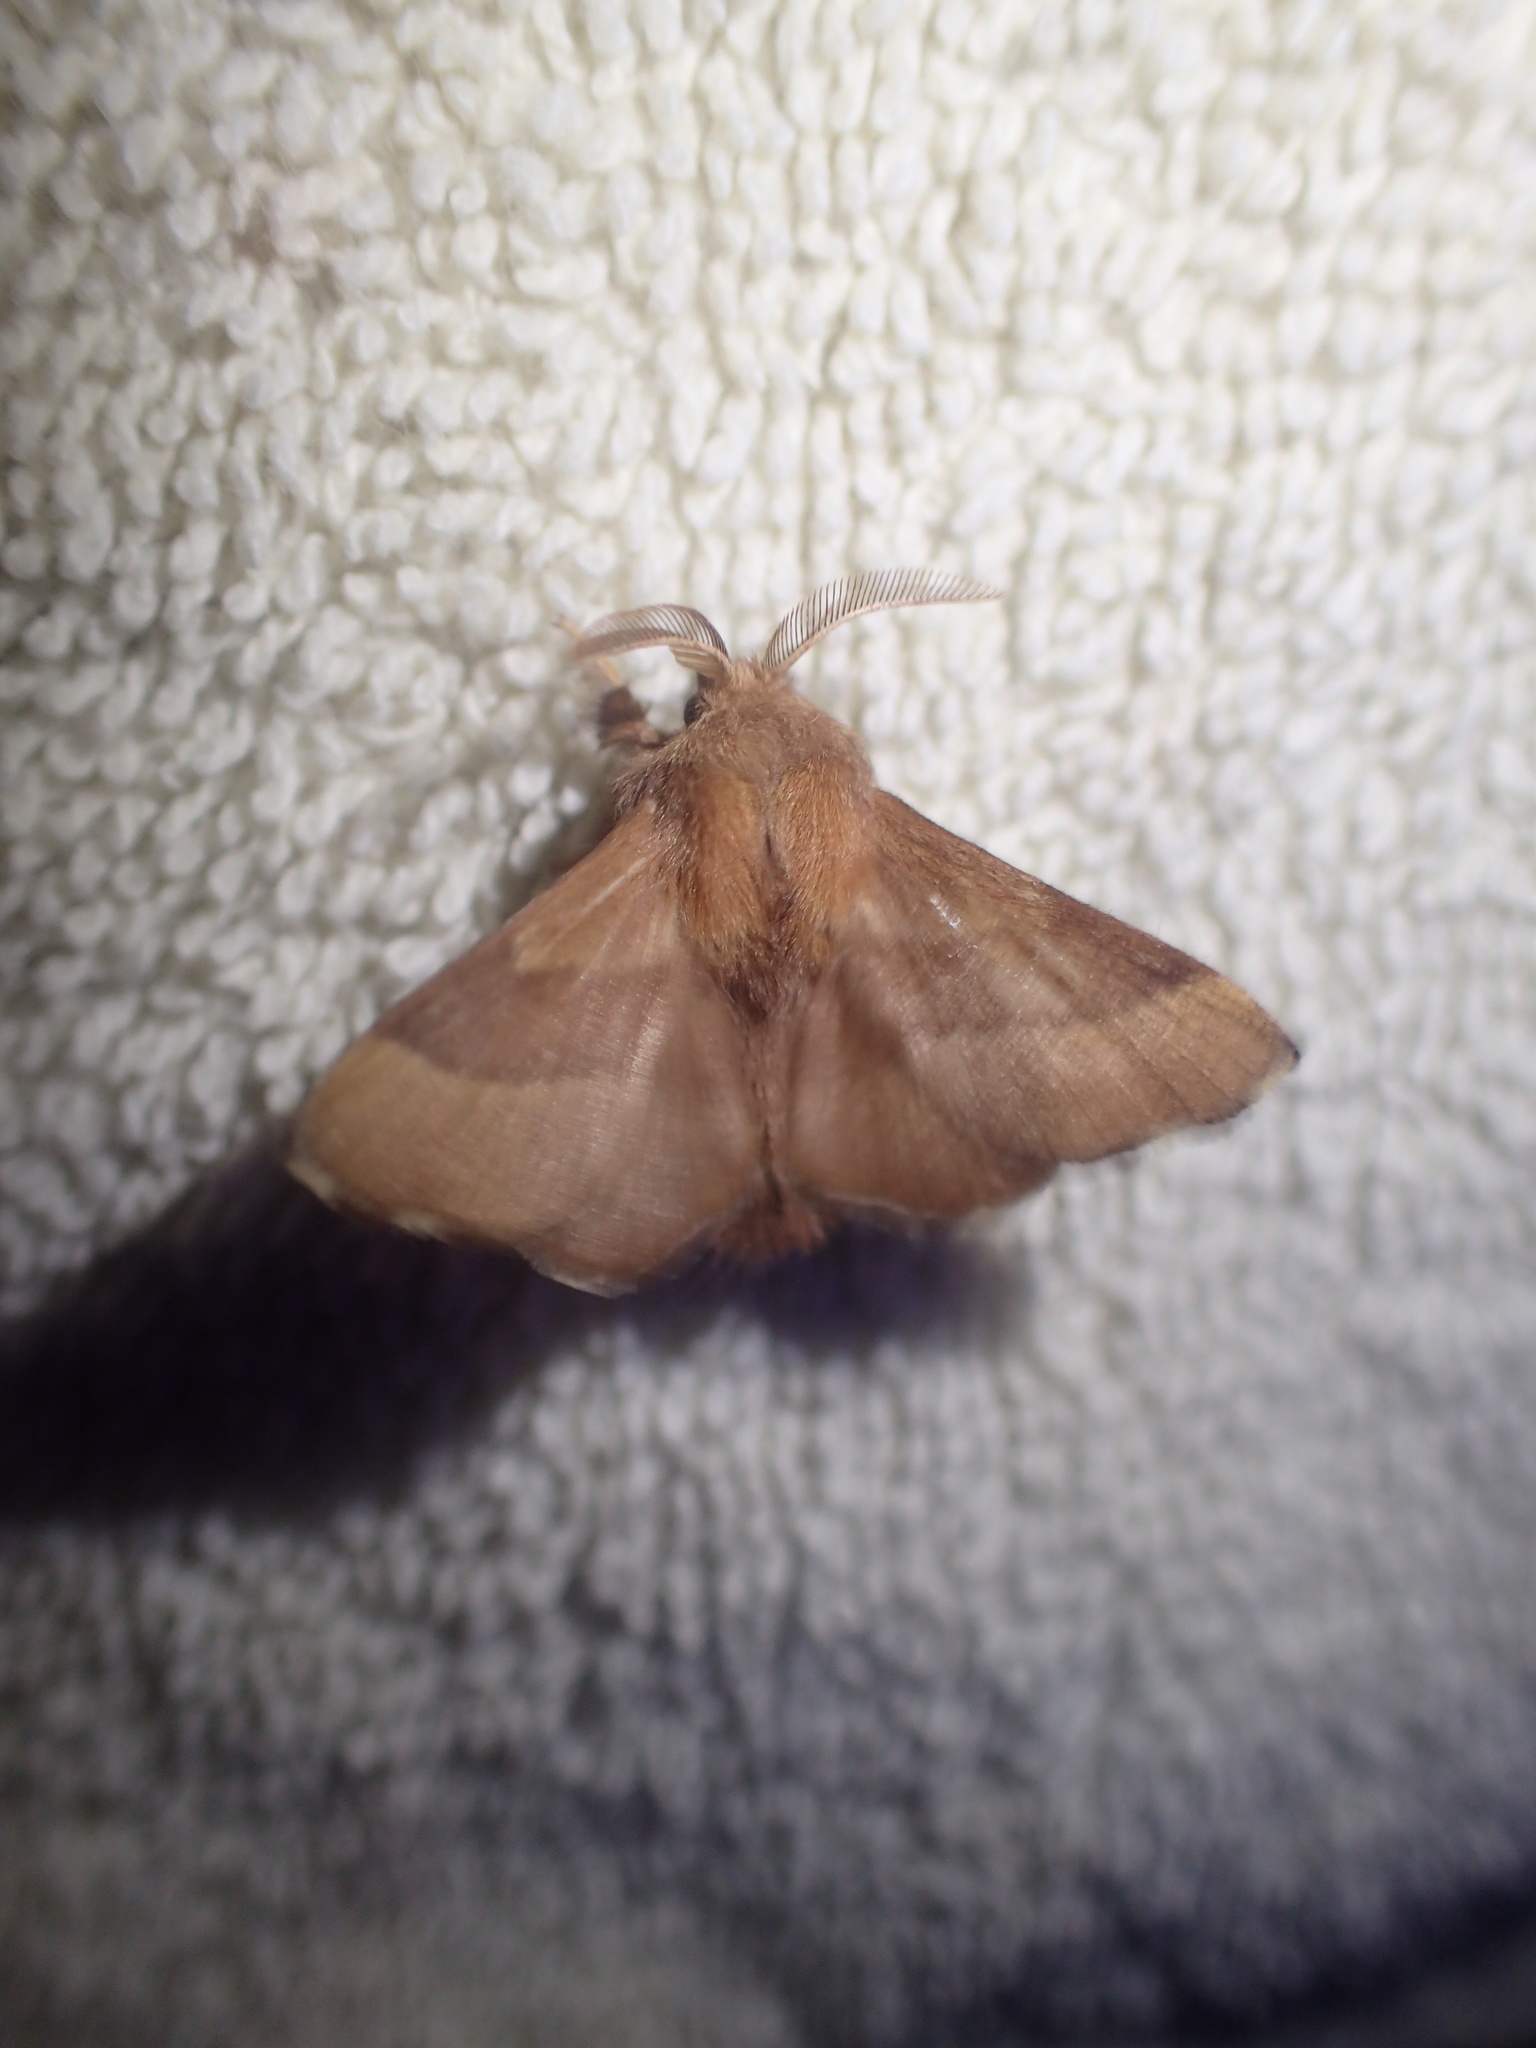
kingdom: Animalia
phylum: Arthropoda
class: Insecta
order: Lepidoptera
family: Lasiocampidae
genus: Malacosoma
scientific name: Malacosoma disstria
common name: Forest tent caterpillar
